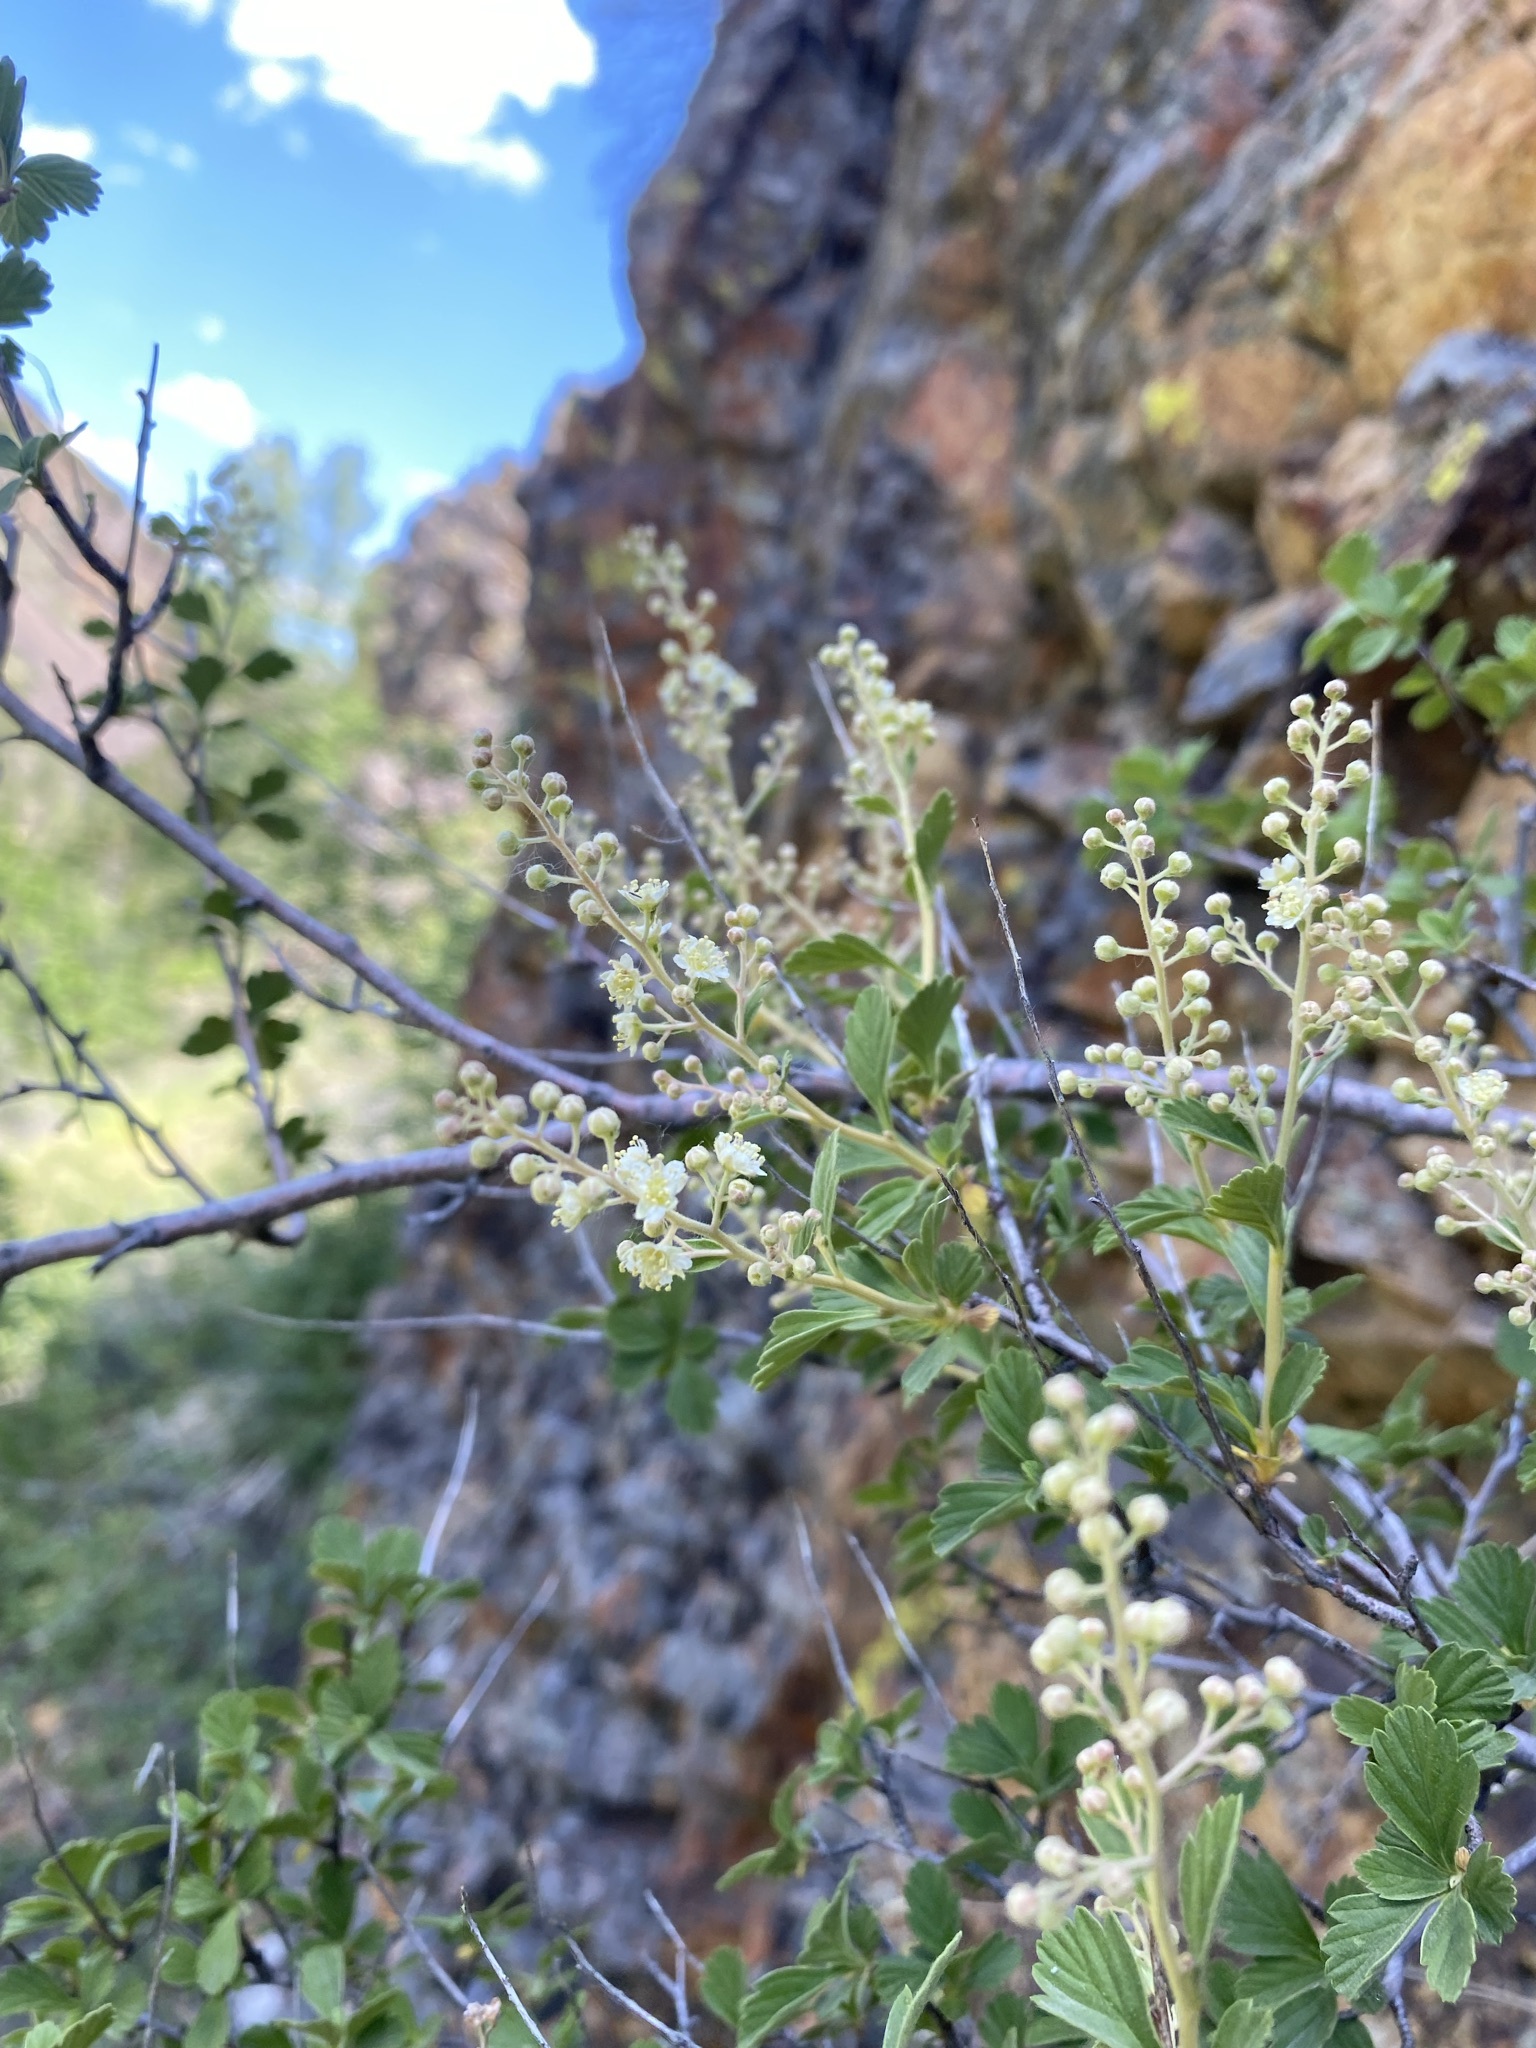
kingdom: Plantae
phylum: Tracheophyta
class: Magnoliopsida
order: Rosales
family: Rosaceae
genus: Holodiscus
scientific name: Holodiscus discolor
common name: Oceanspray
